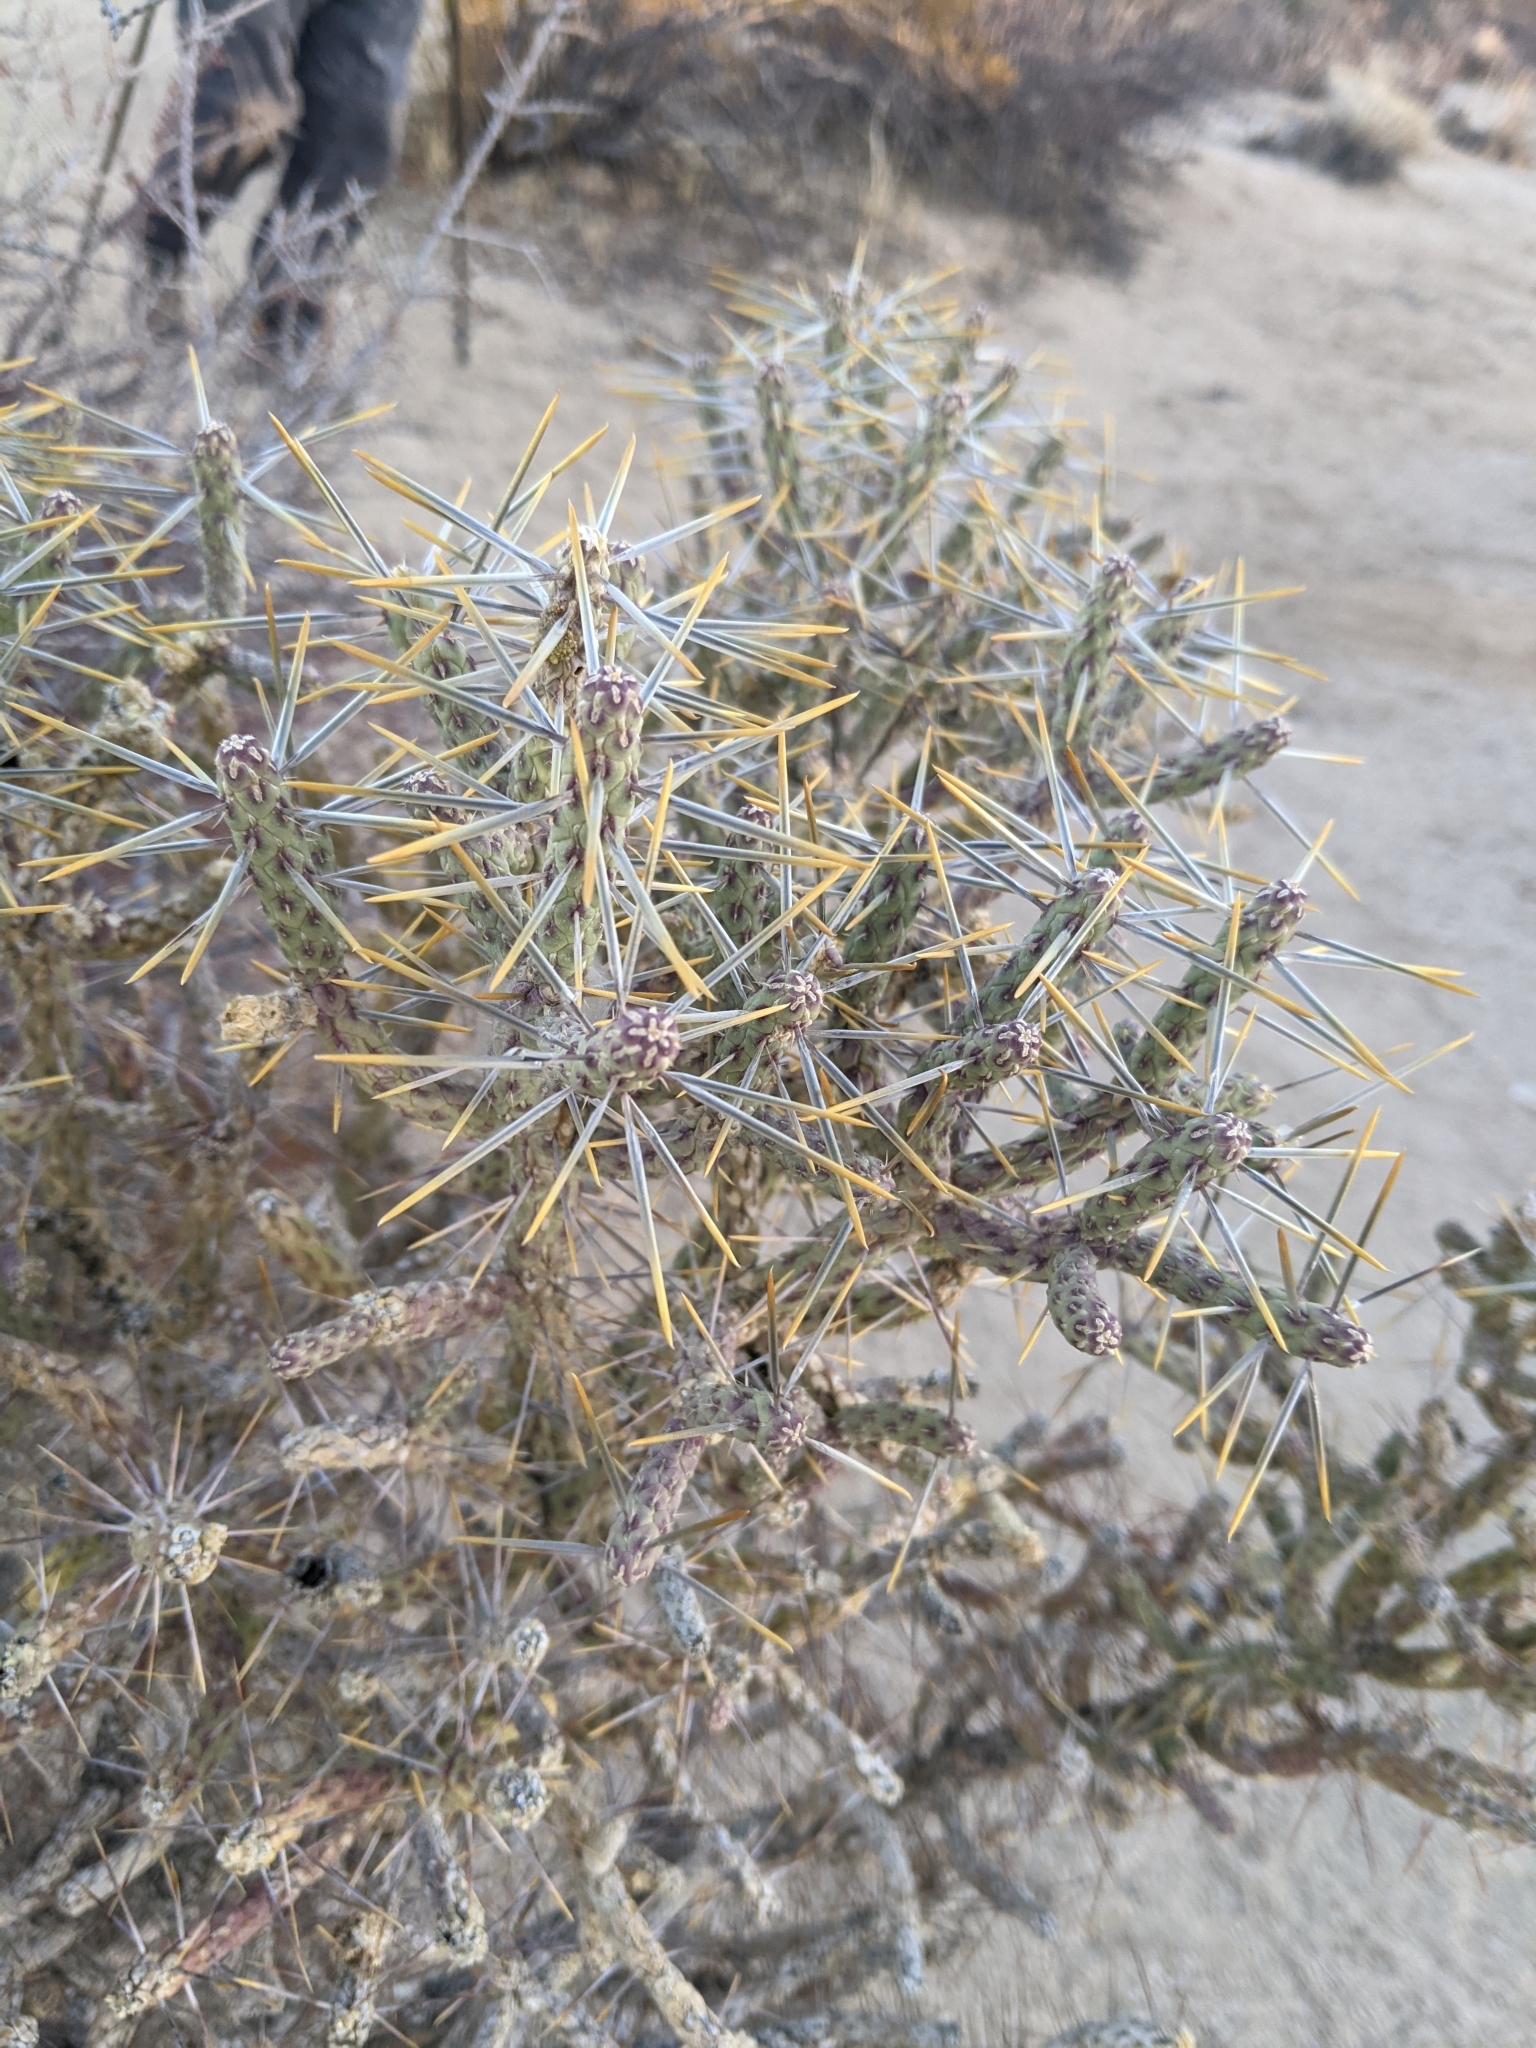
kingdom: Plantae
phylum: Tracheophyta
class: Magnoliopsida
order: Caryophyllales
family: Cactaceae
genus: Cylindropuntia
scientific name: Cylindropuntia ramosissima
